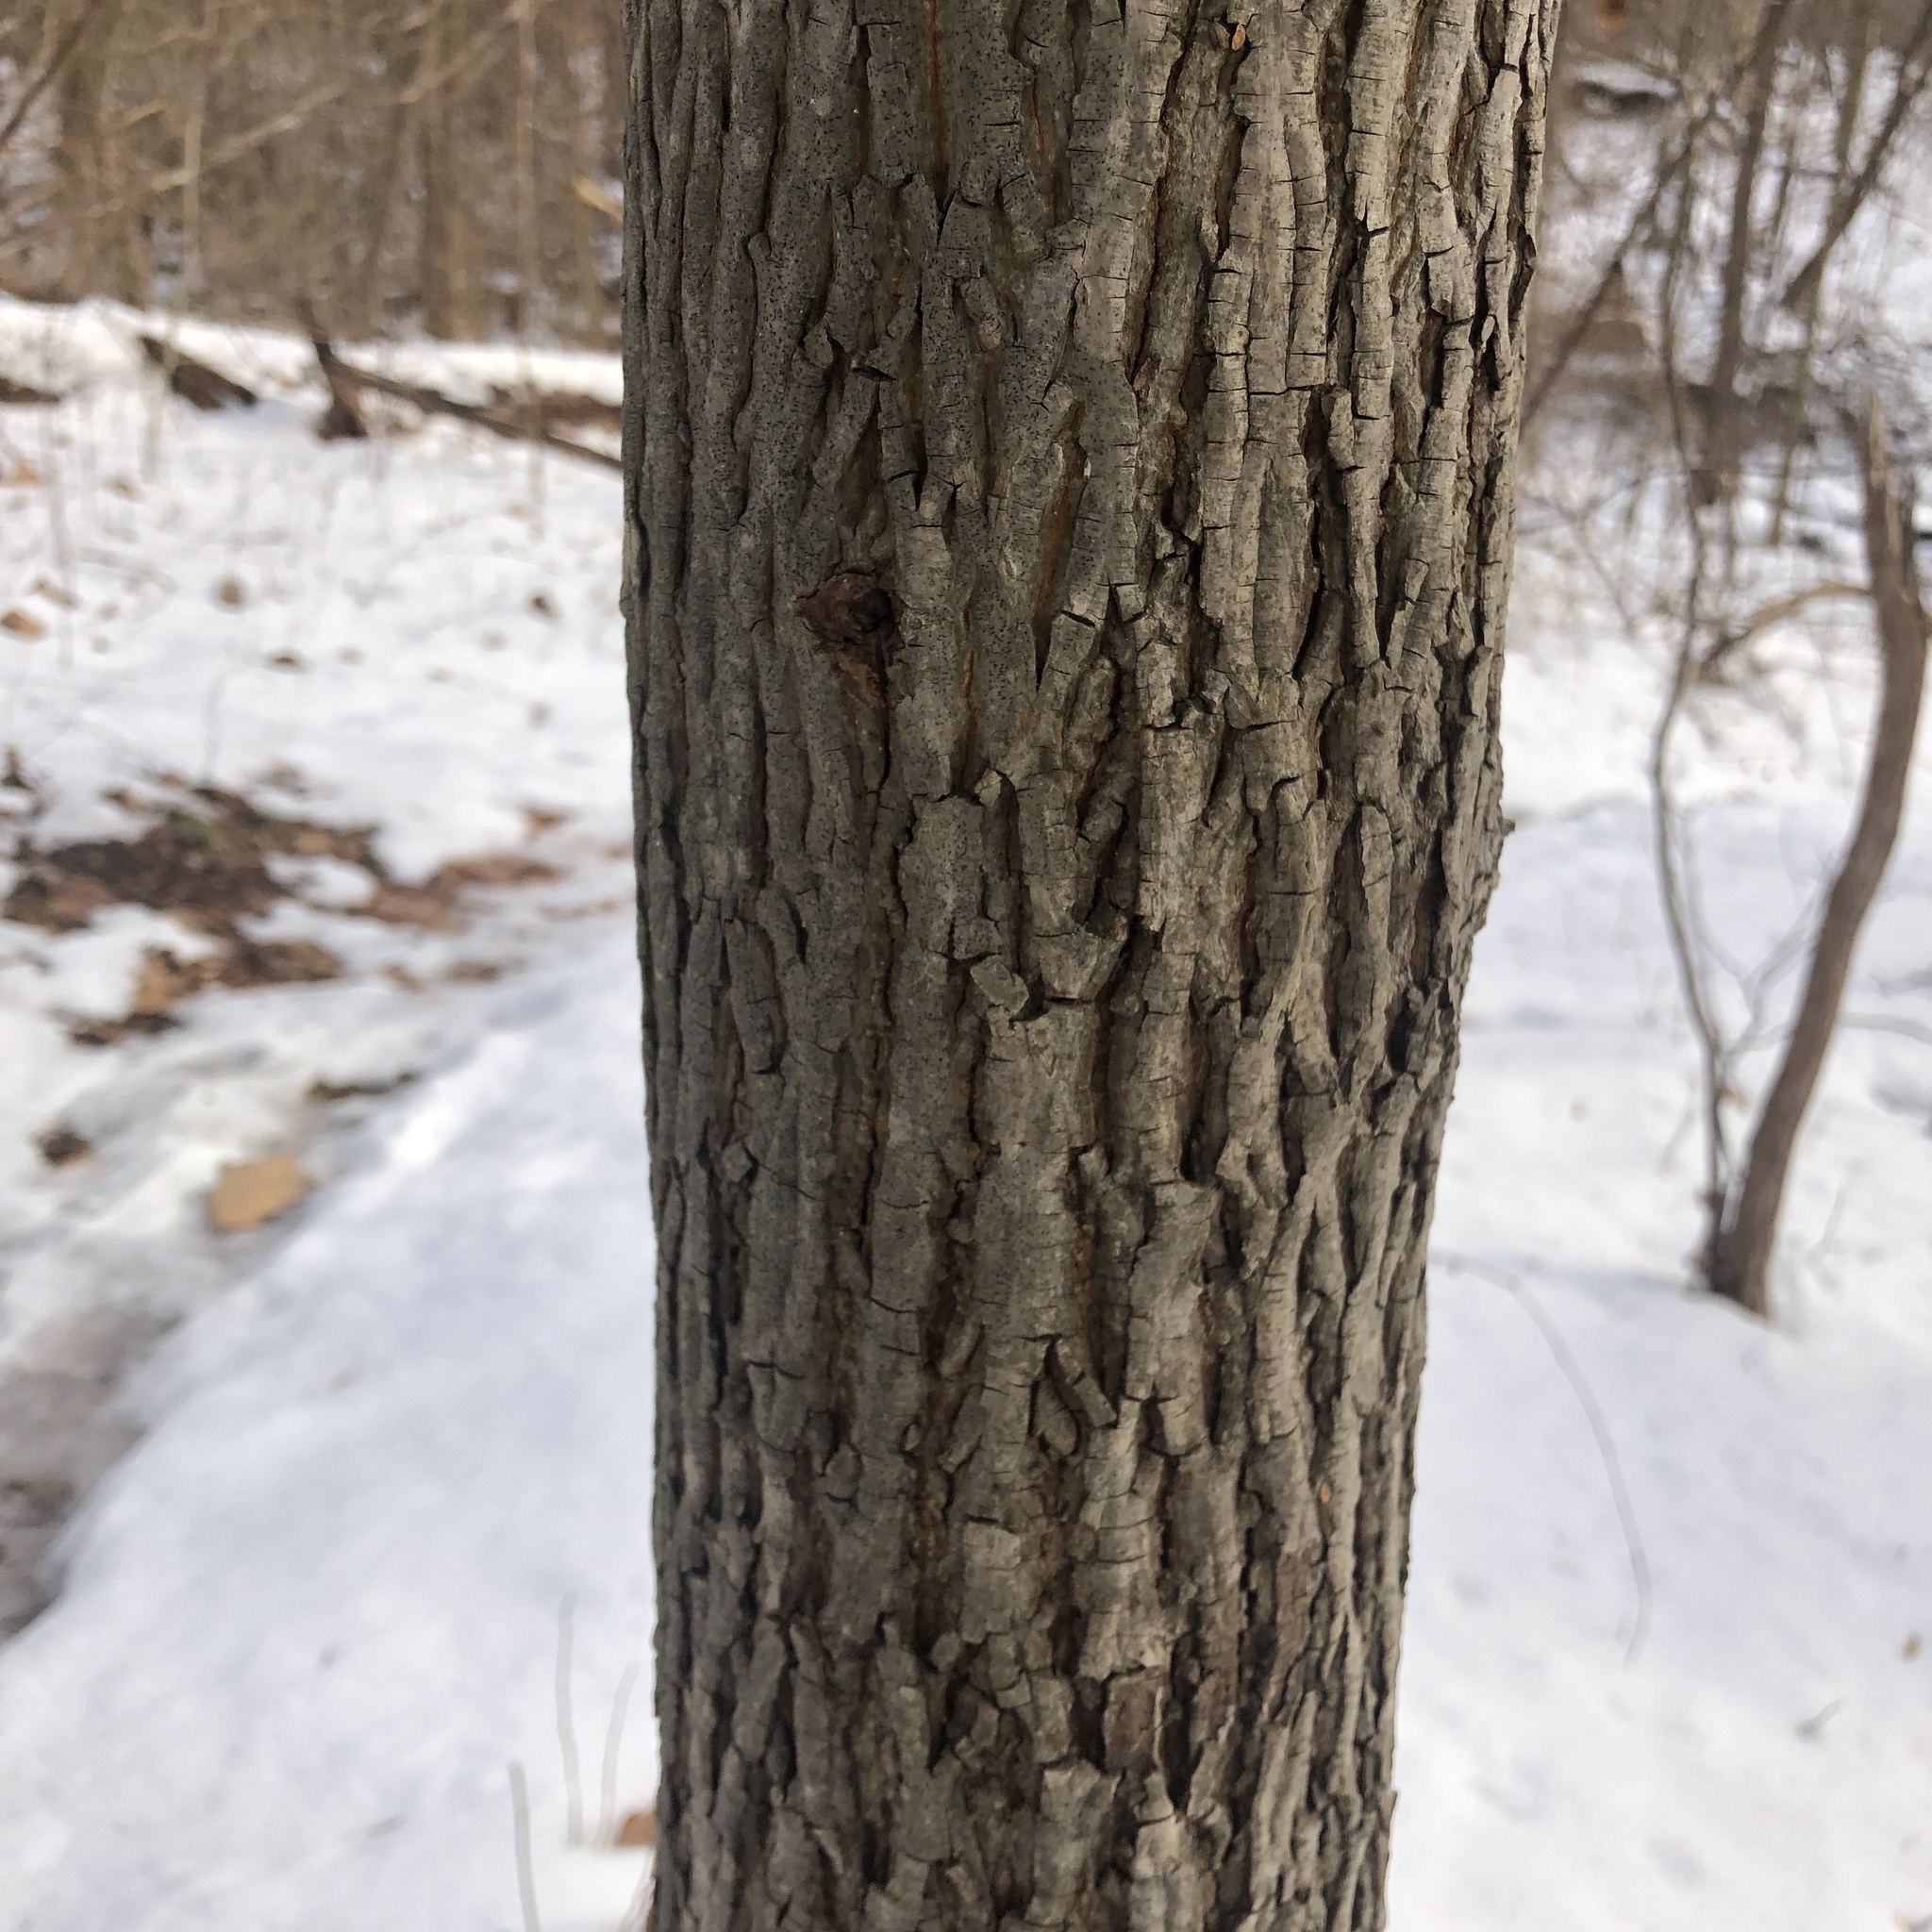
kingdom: Plantae
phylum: Tracheophyta
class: Magnoliopsida
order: Fagales
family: Juglandaceae
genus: Carya
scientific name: Carya alba
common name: Mockernut hickory
